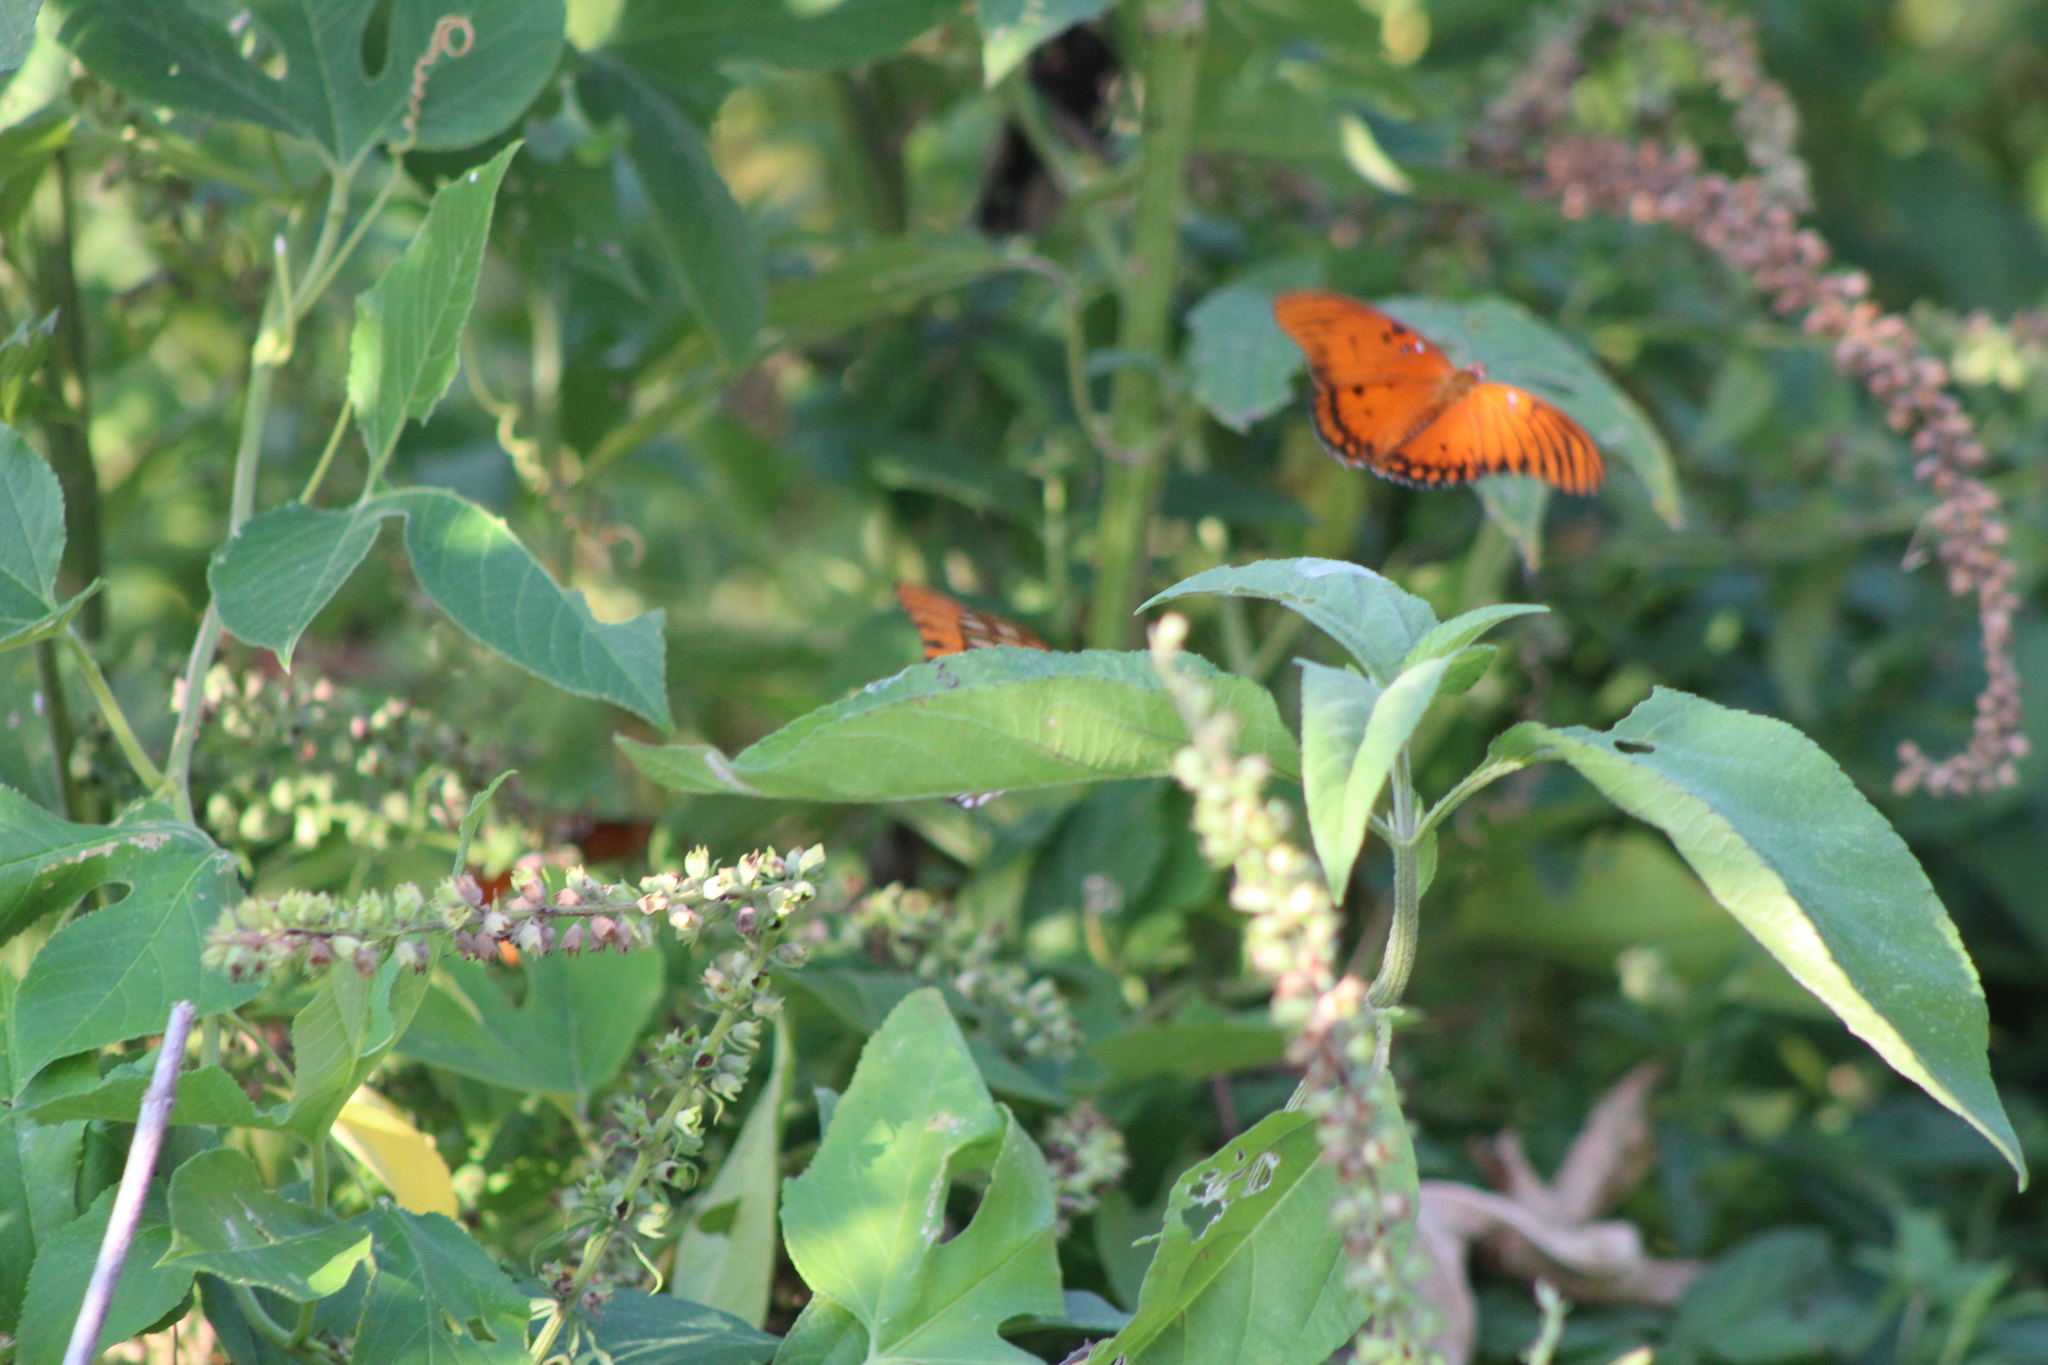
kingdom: Animalia
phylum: Arthropoda
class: Insecta
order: Lepidoptera
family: Nymphalidae
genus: Dione
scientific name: Dione vanillae
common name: Gulf fritillary
